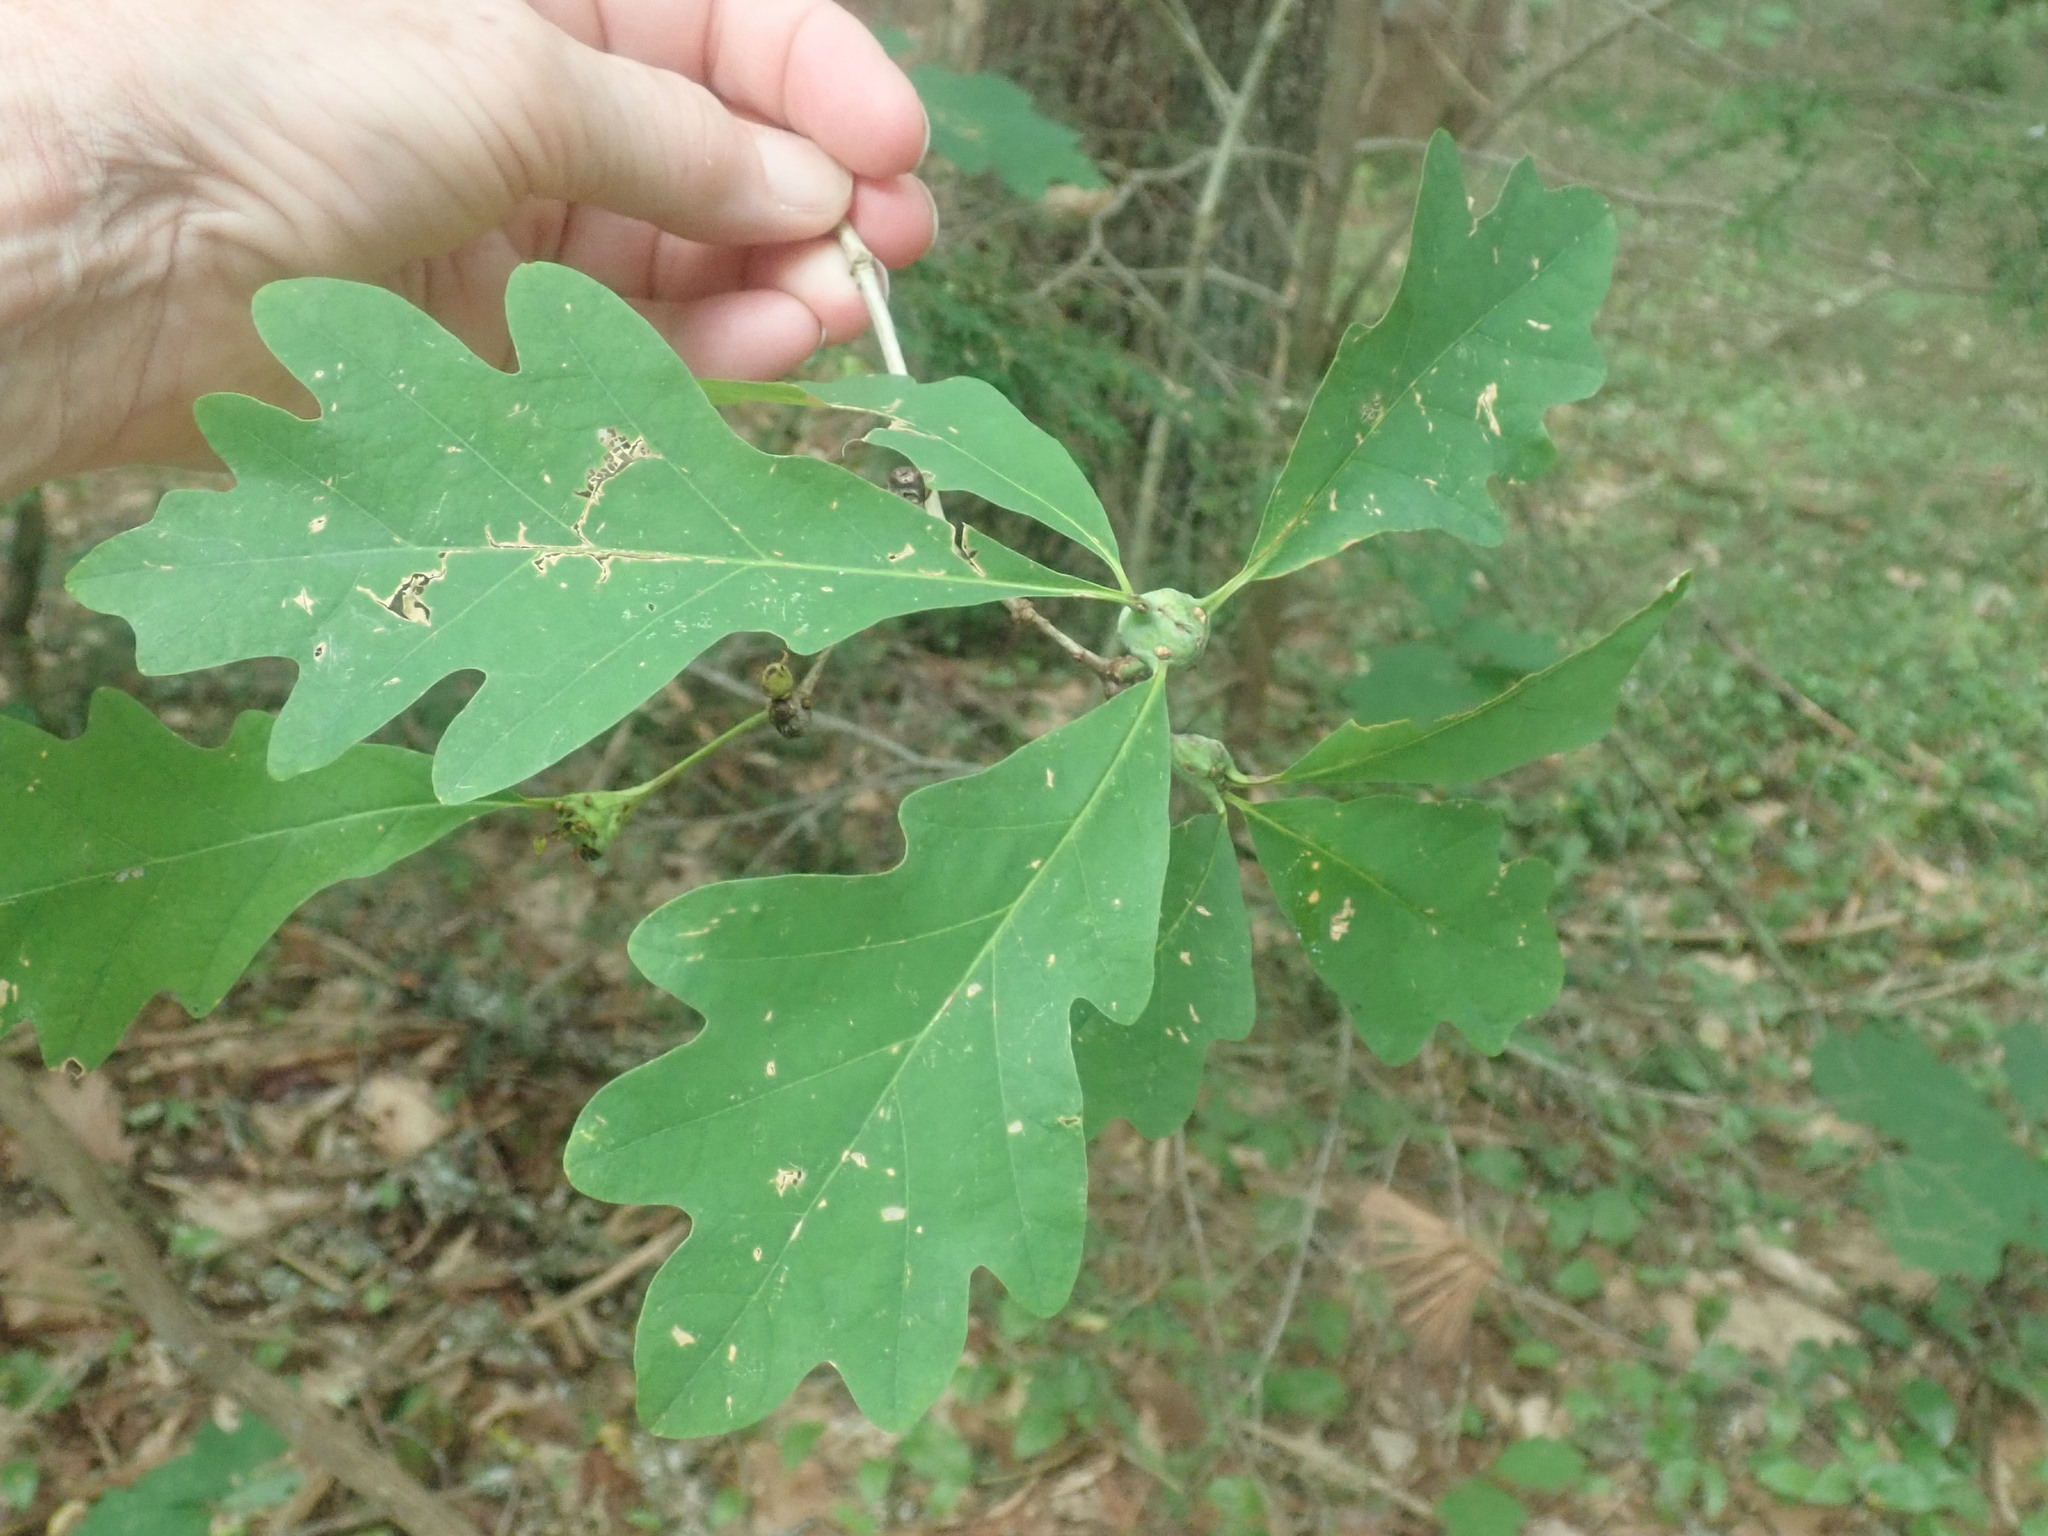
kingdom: Plantae
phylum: Tracheophyta
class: Magnoliopsida
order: Fagales
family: Fagaceae
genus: Quercus
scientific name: Quercus alba
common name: White oak
